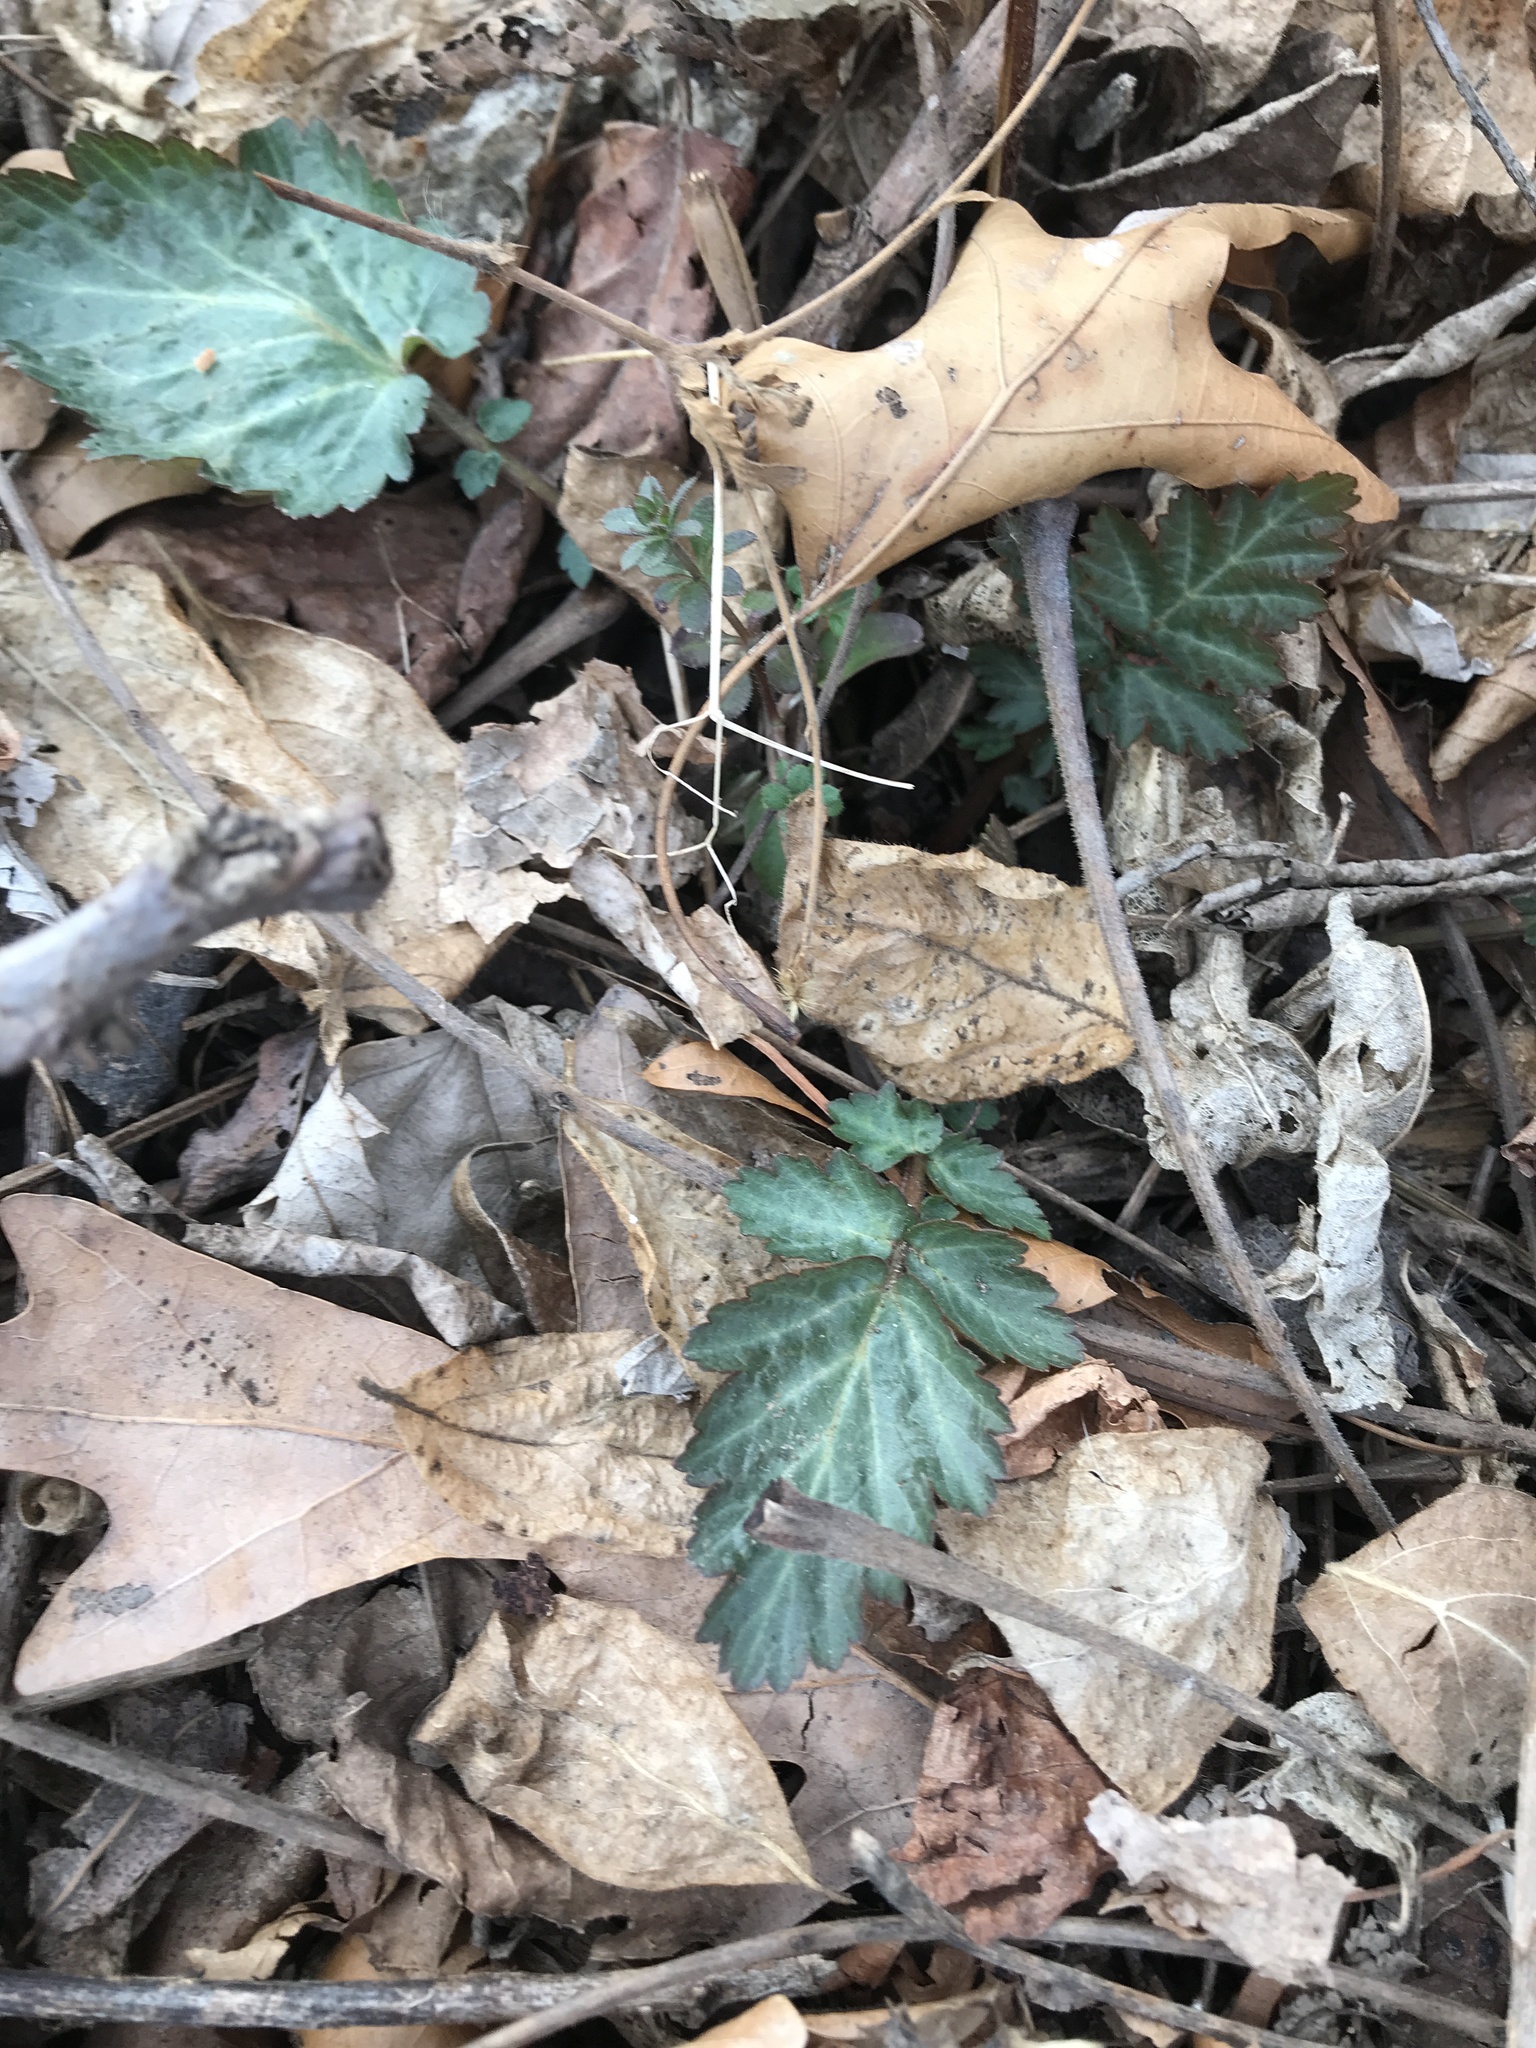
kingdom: Plantae
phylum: Tracheophyta
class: Magnoliopsida
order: Rosales
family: Rosaceae
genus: Geum
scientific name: Geum canadense
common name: White avens
